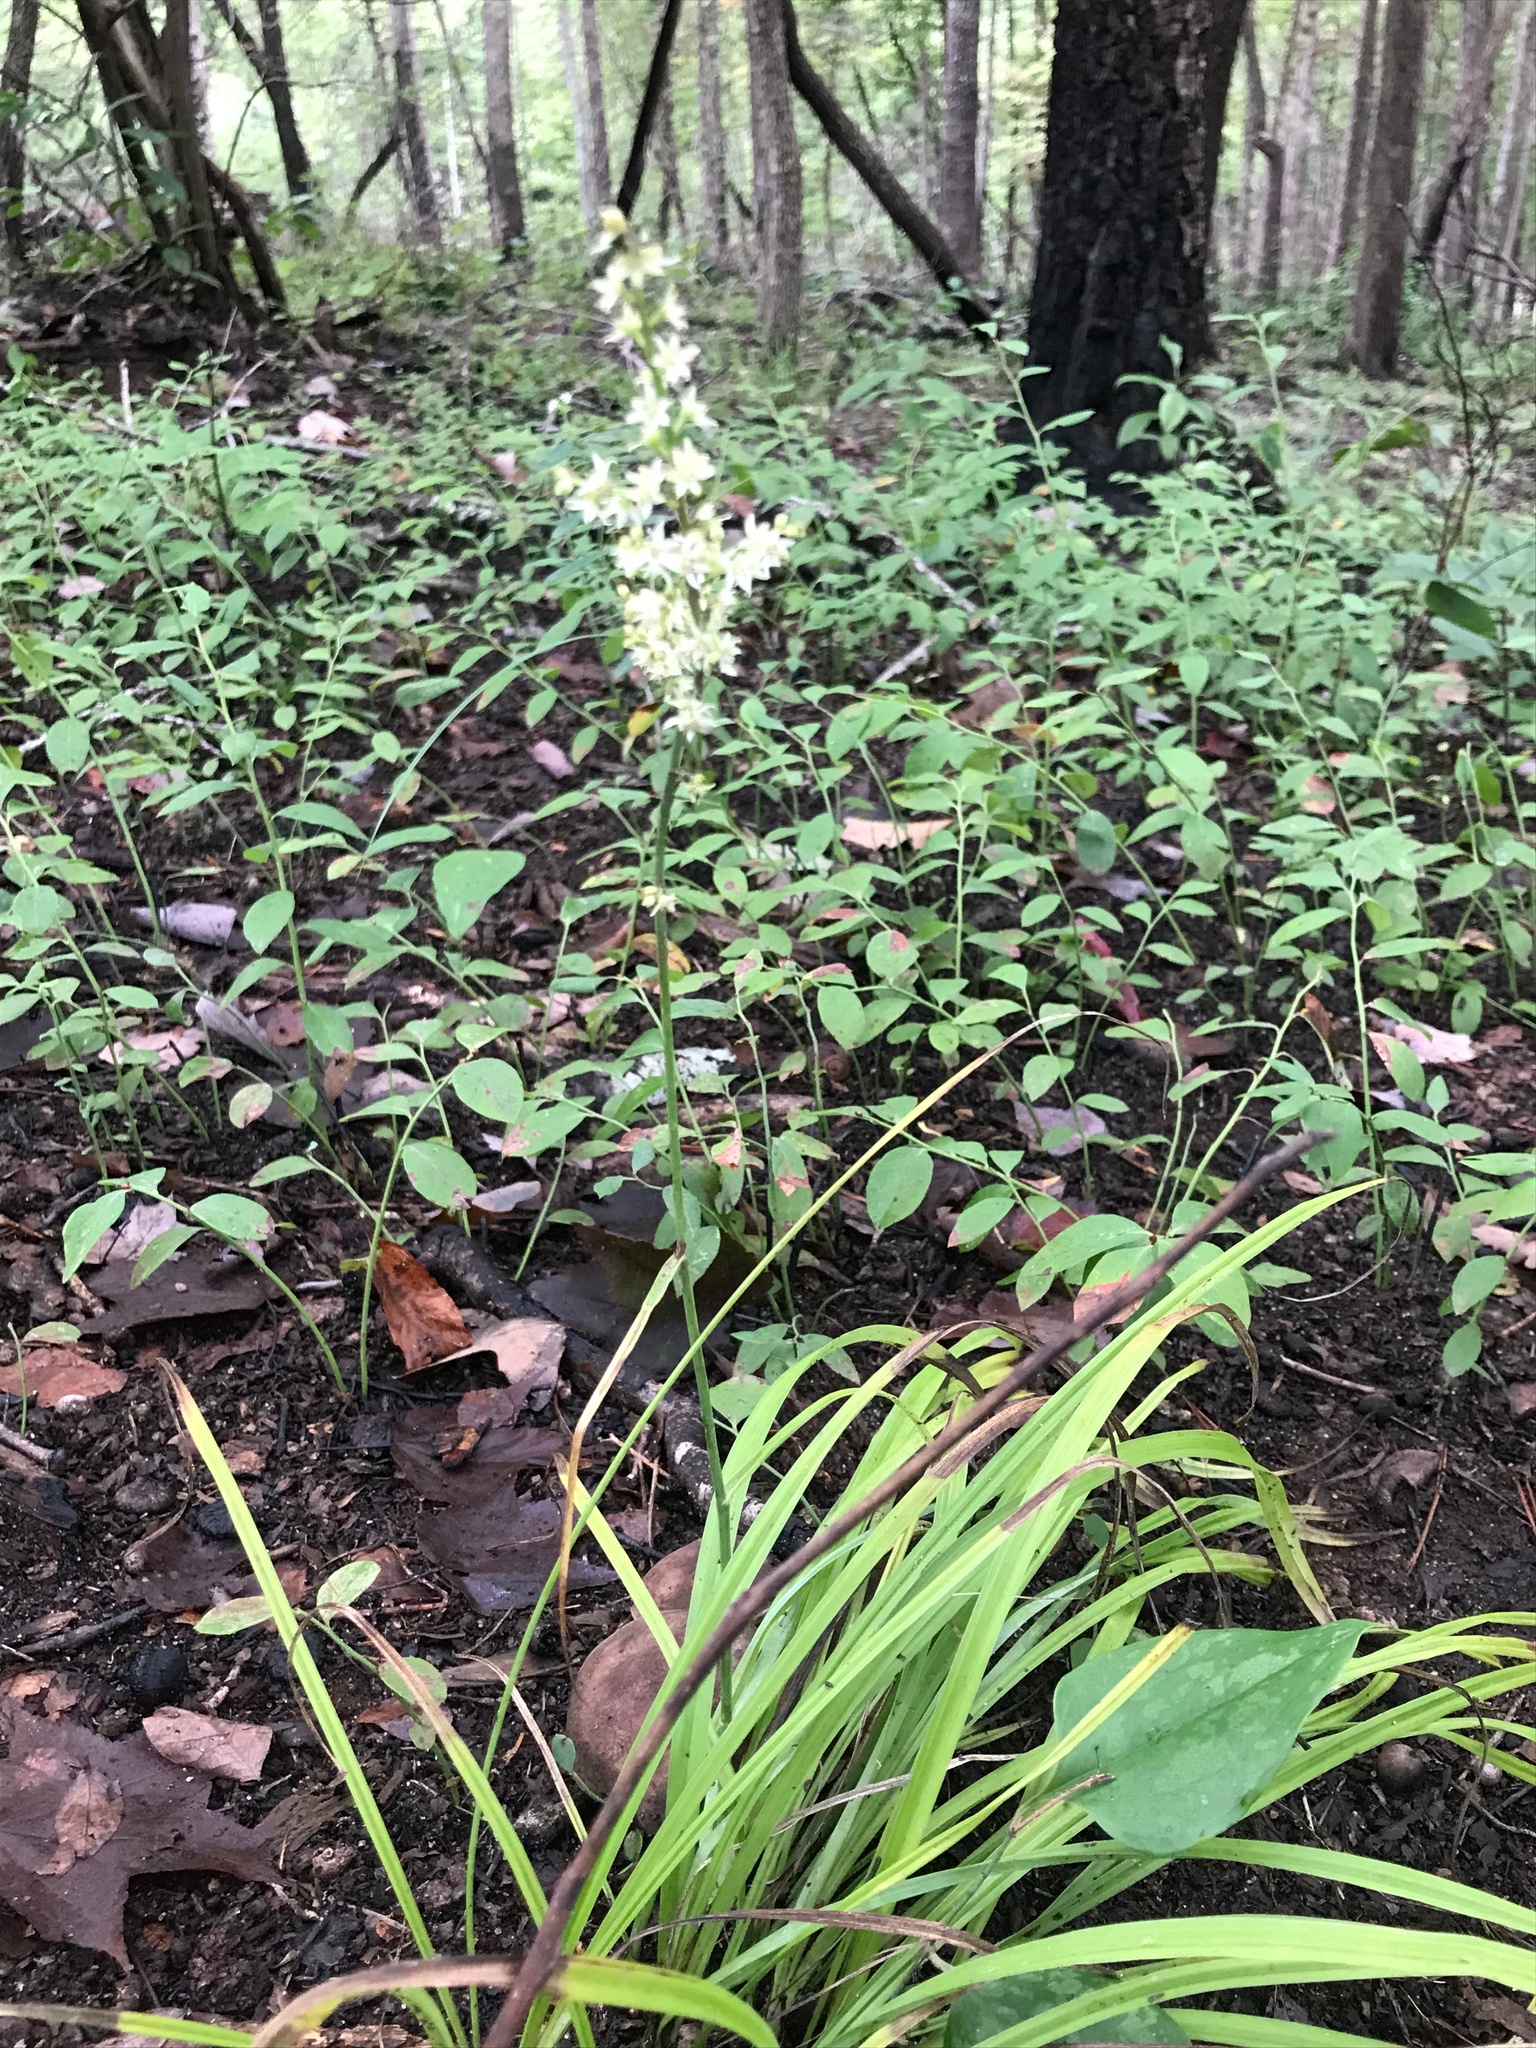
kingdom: Plantae
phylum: Tracheophyta
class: Liliopsida
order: Liliales
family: Melanthiaceae
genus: Stenanthium
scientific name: Stenanthium gramineum
